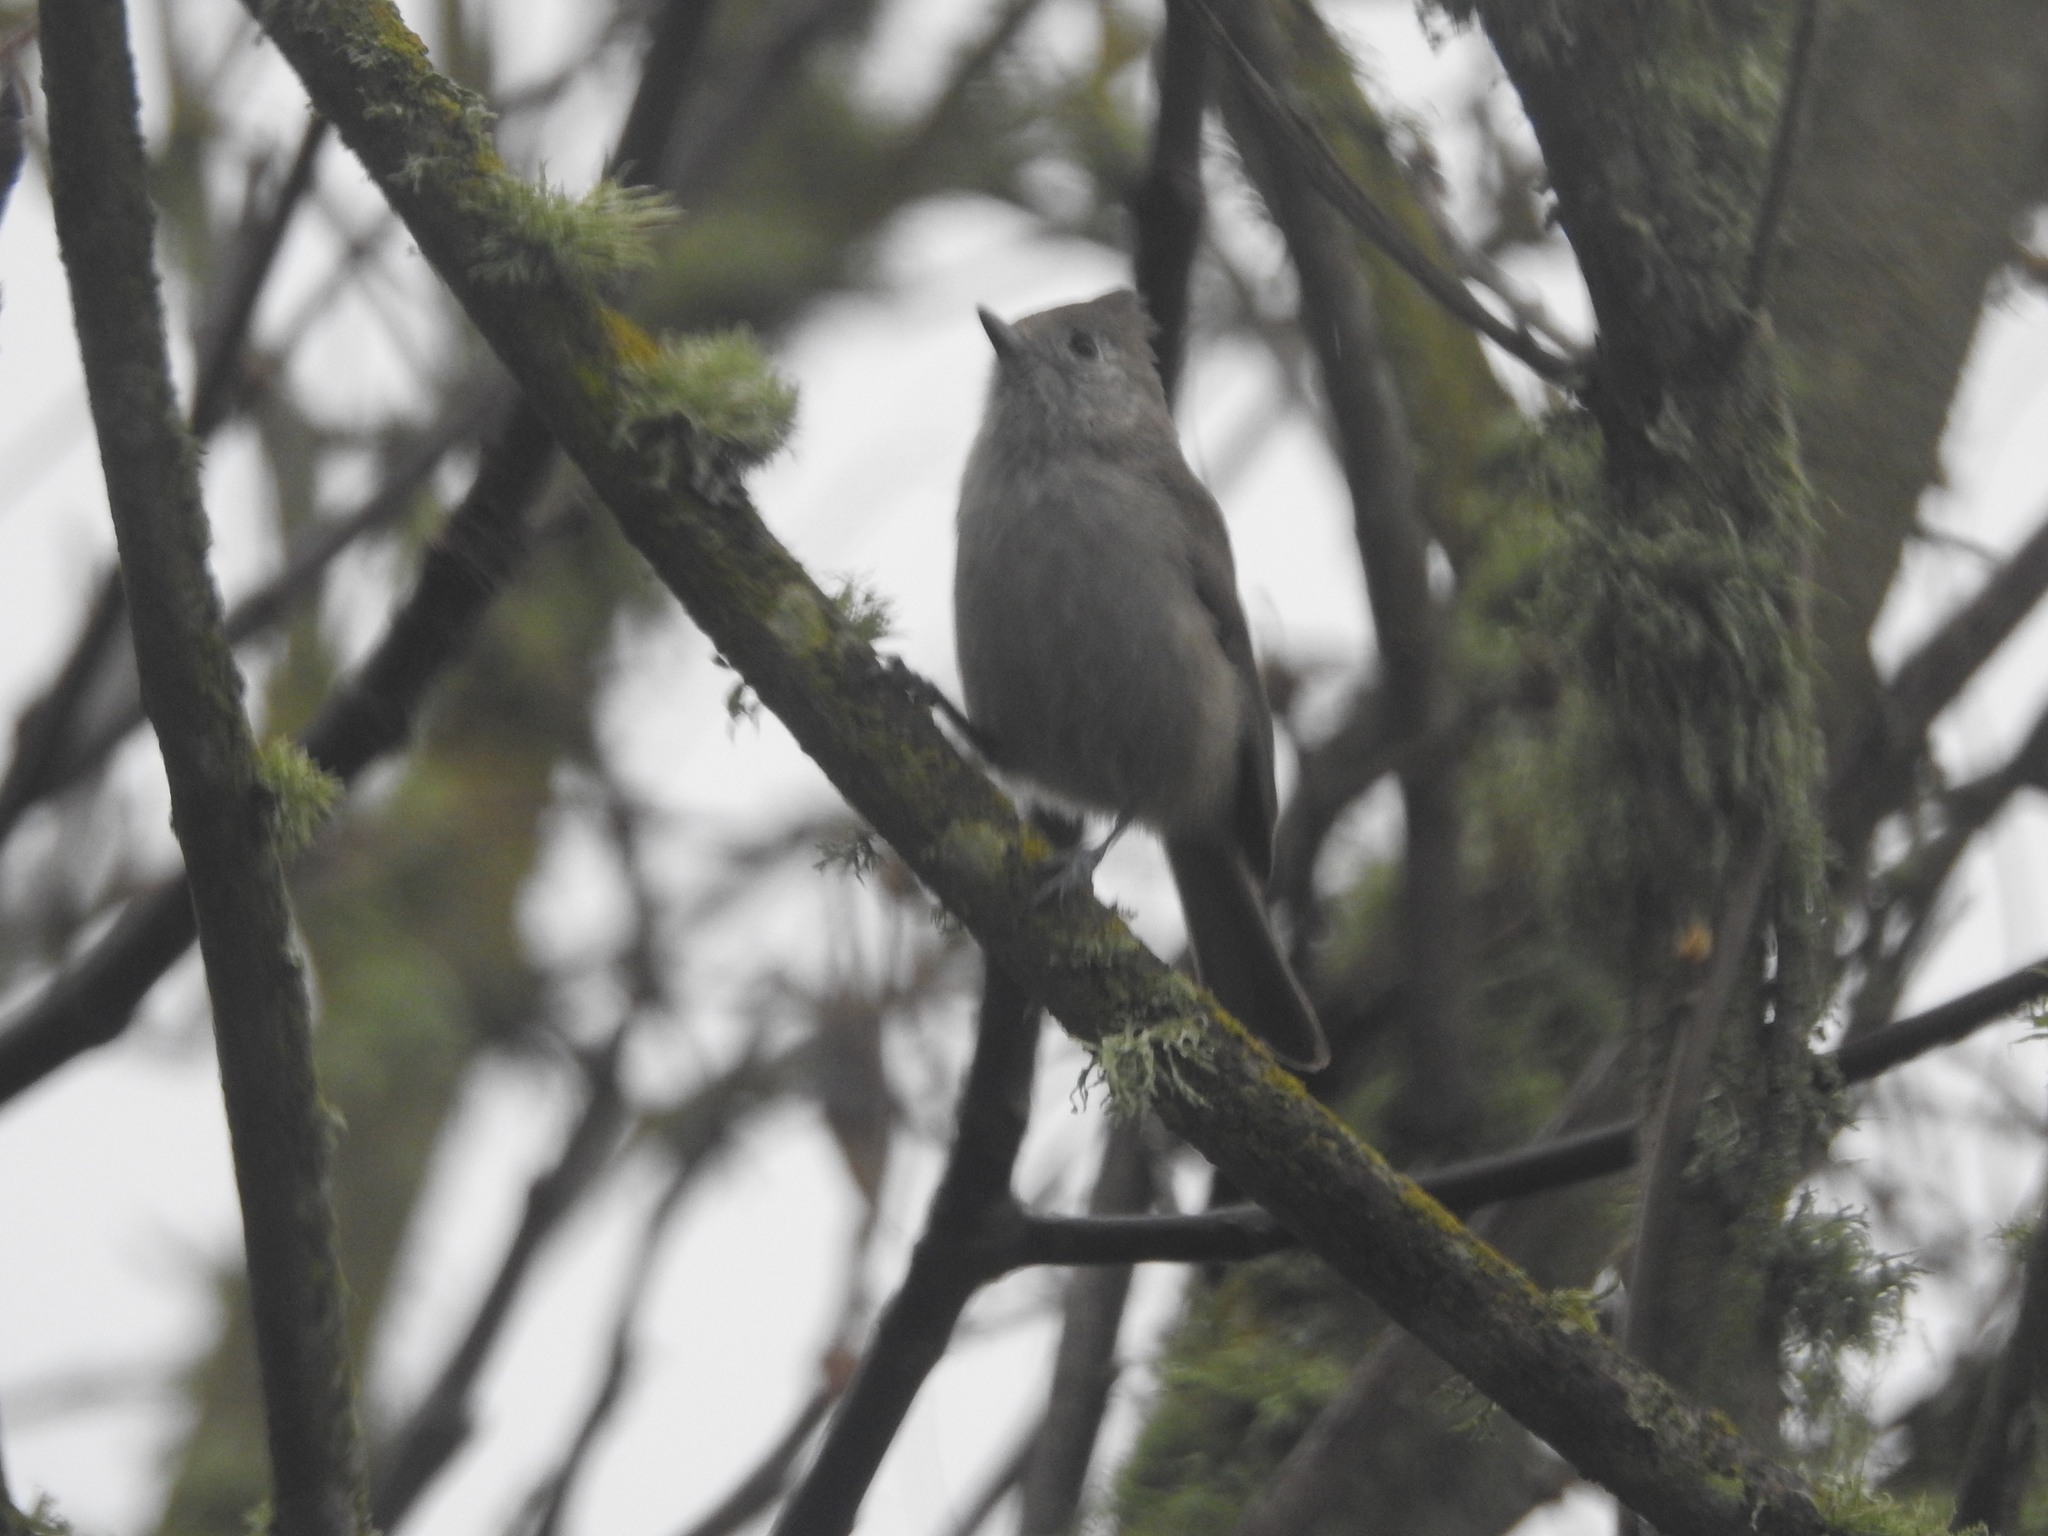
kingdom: Animalia
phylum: Chordata
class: Aves
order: Passeriformes
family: Paridae
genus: Baeolophus
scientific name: Baeolophus inornatus
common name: Oak titmouse
